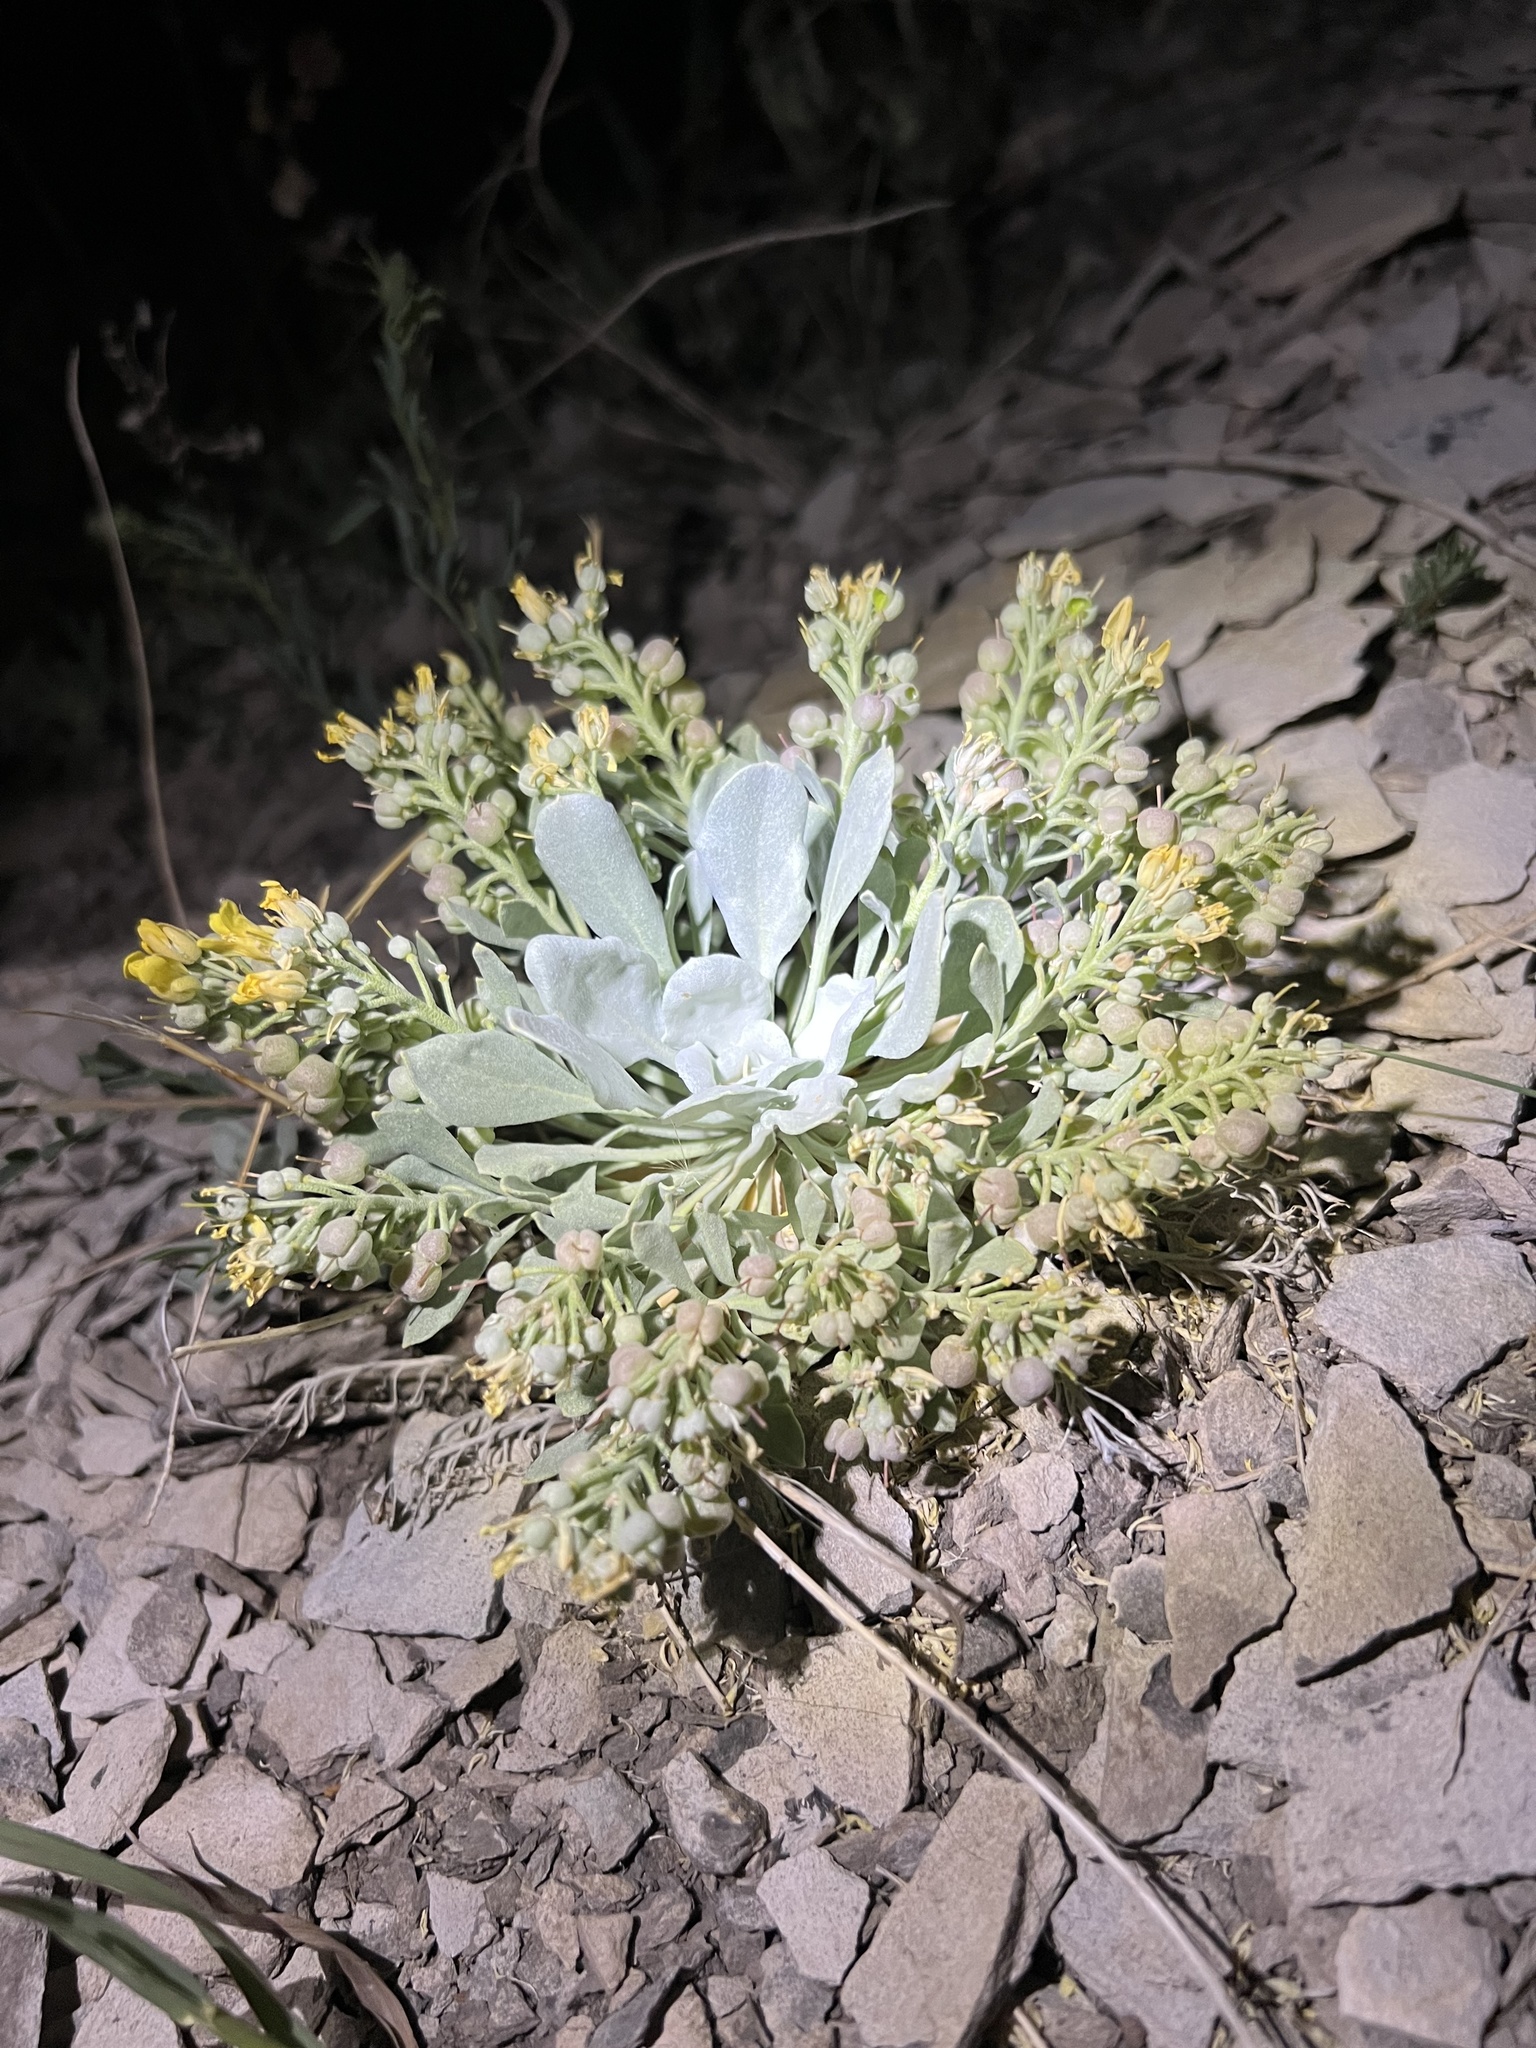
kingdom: Plantae
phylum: Tracheophyta
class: Magnoliopsida
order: Brassicales
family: Brassicaceae
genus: Physaria
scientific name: Physaria bellii
